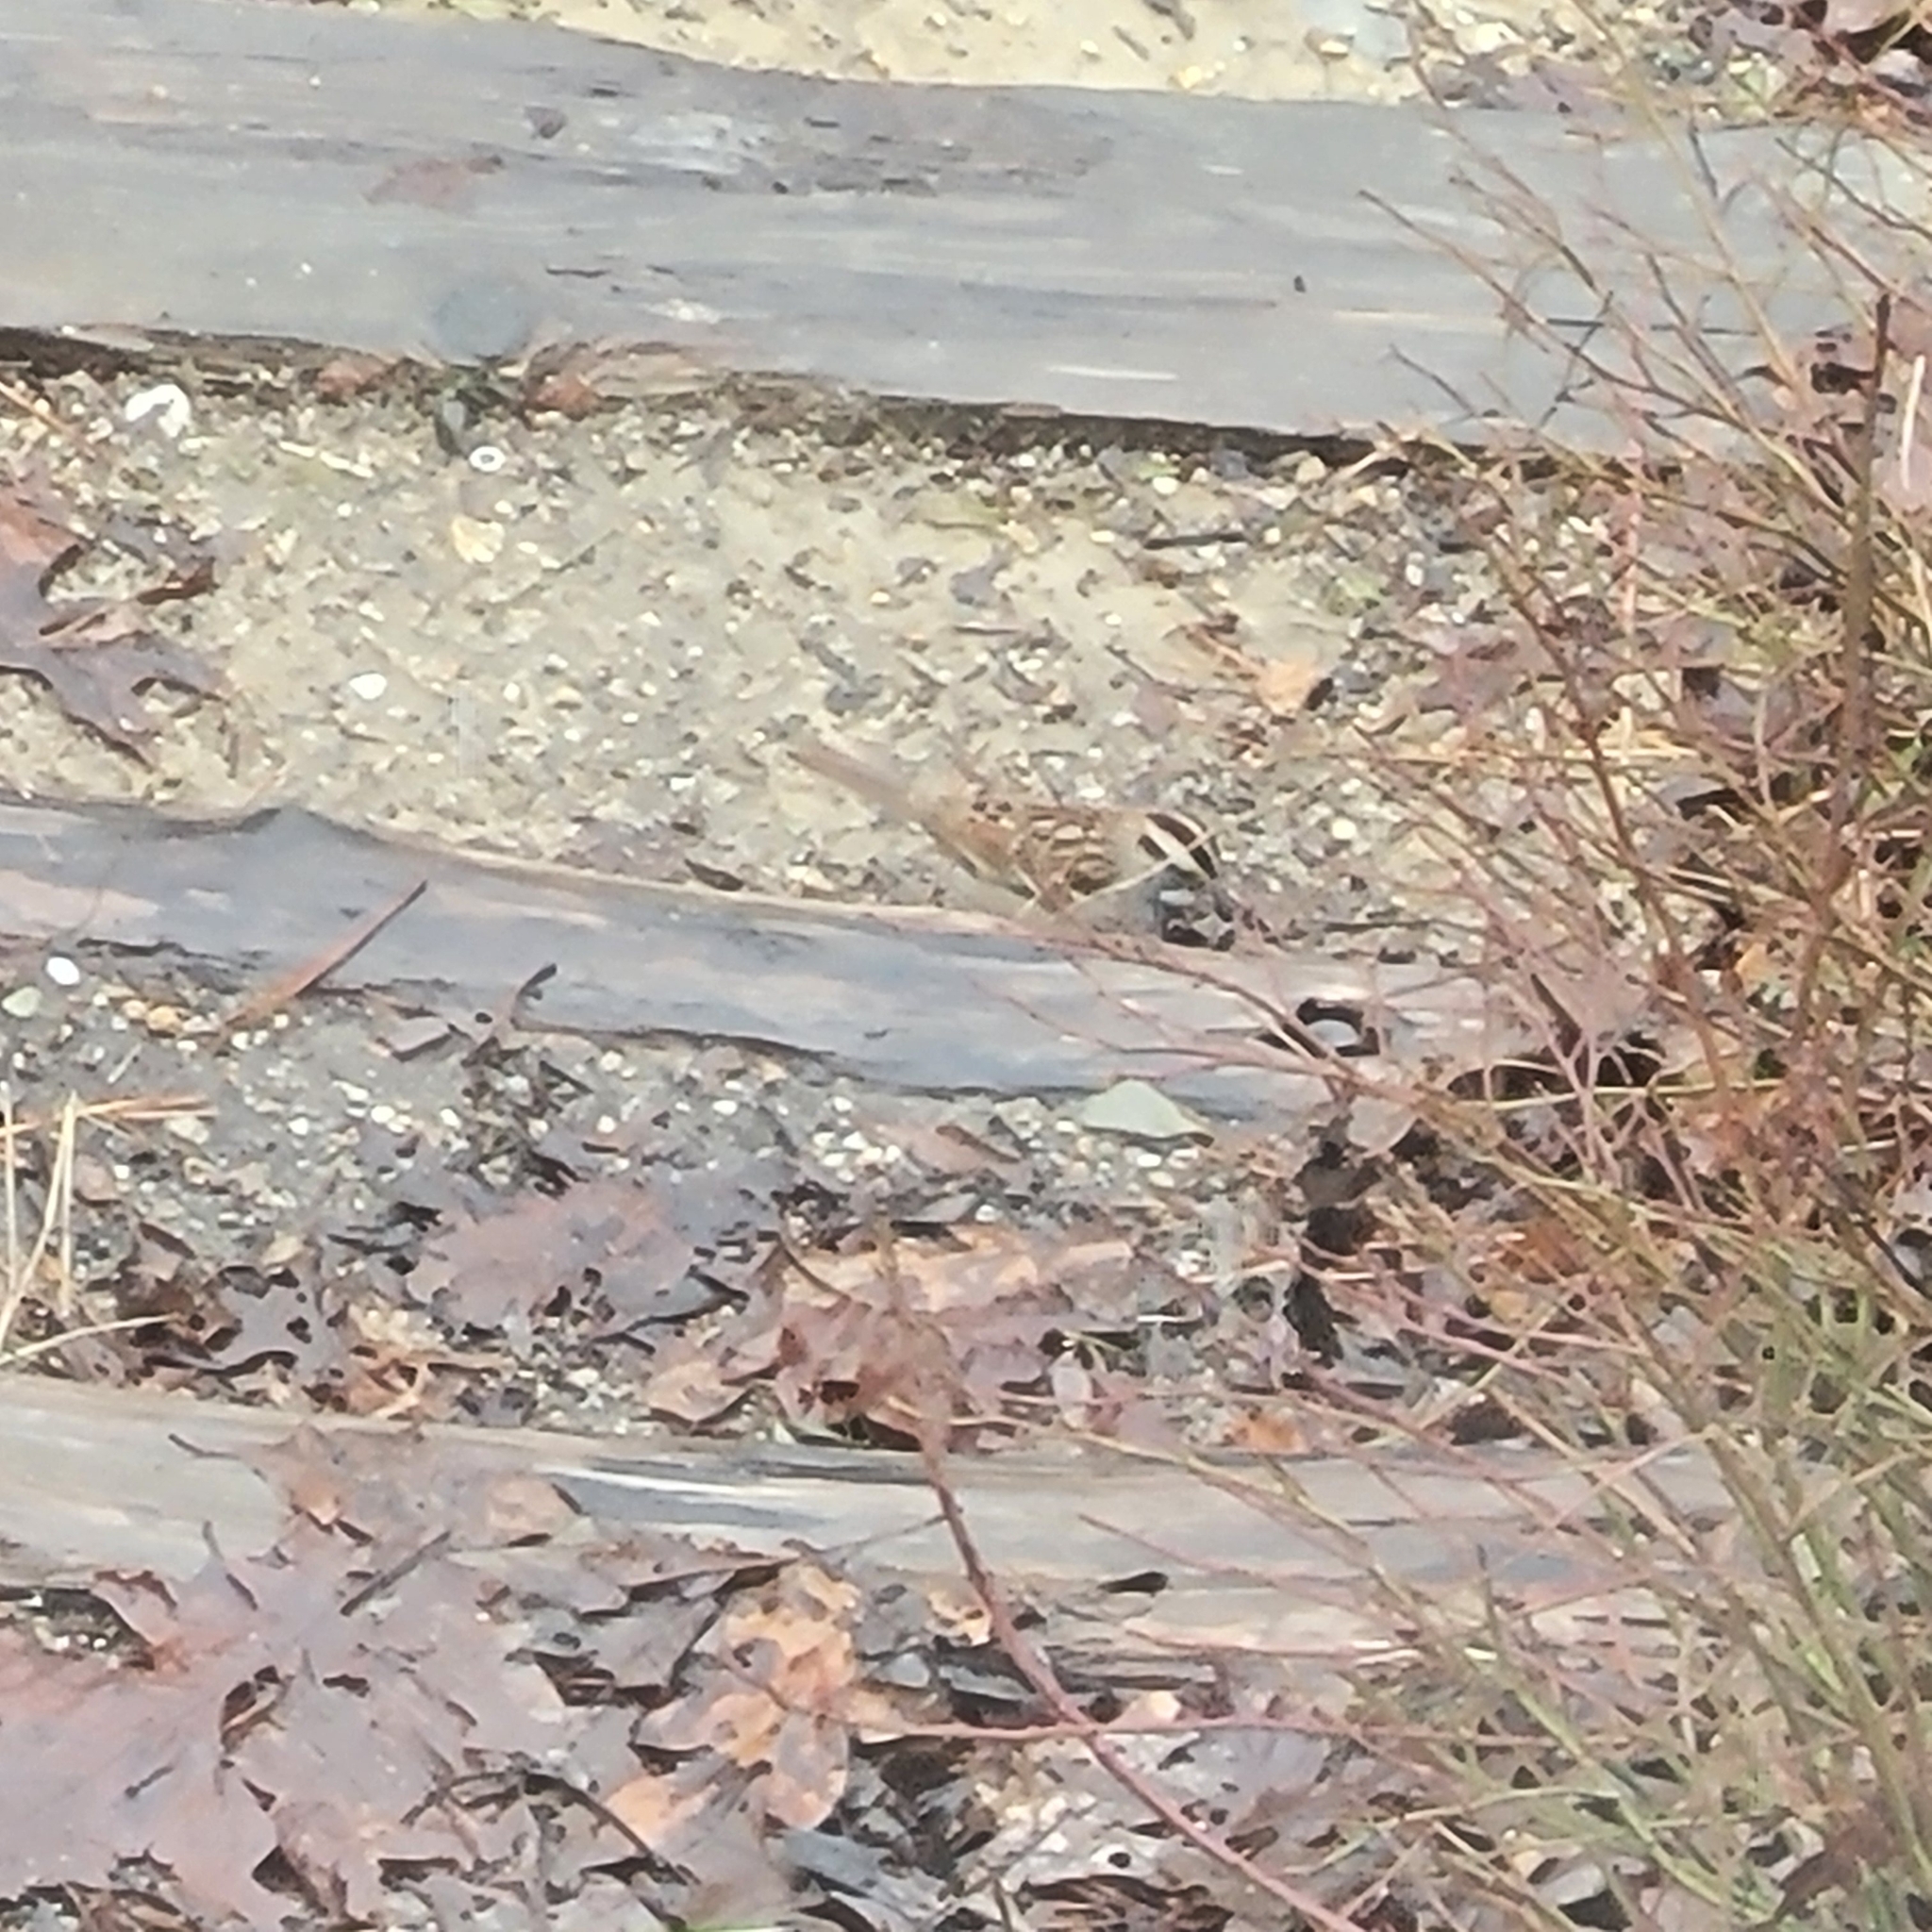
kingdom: Animalia
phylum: Chordata
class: Aves
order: Passeriformes
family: Passerellidae
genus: Zonotrichia
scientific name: Zonotrichia albicollis
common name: White-throated sparrow
